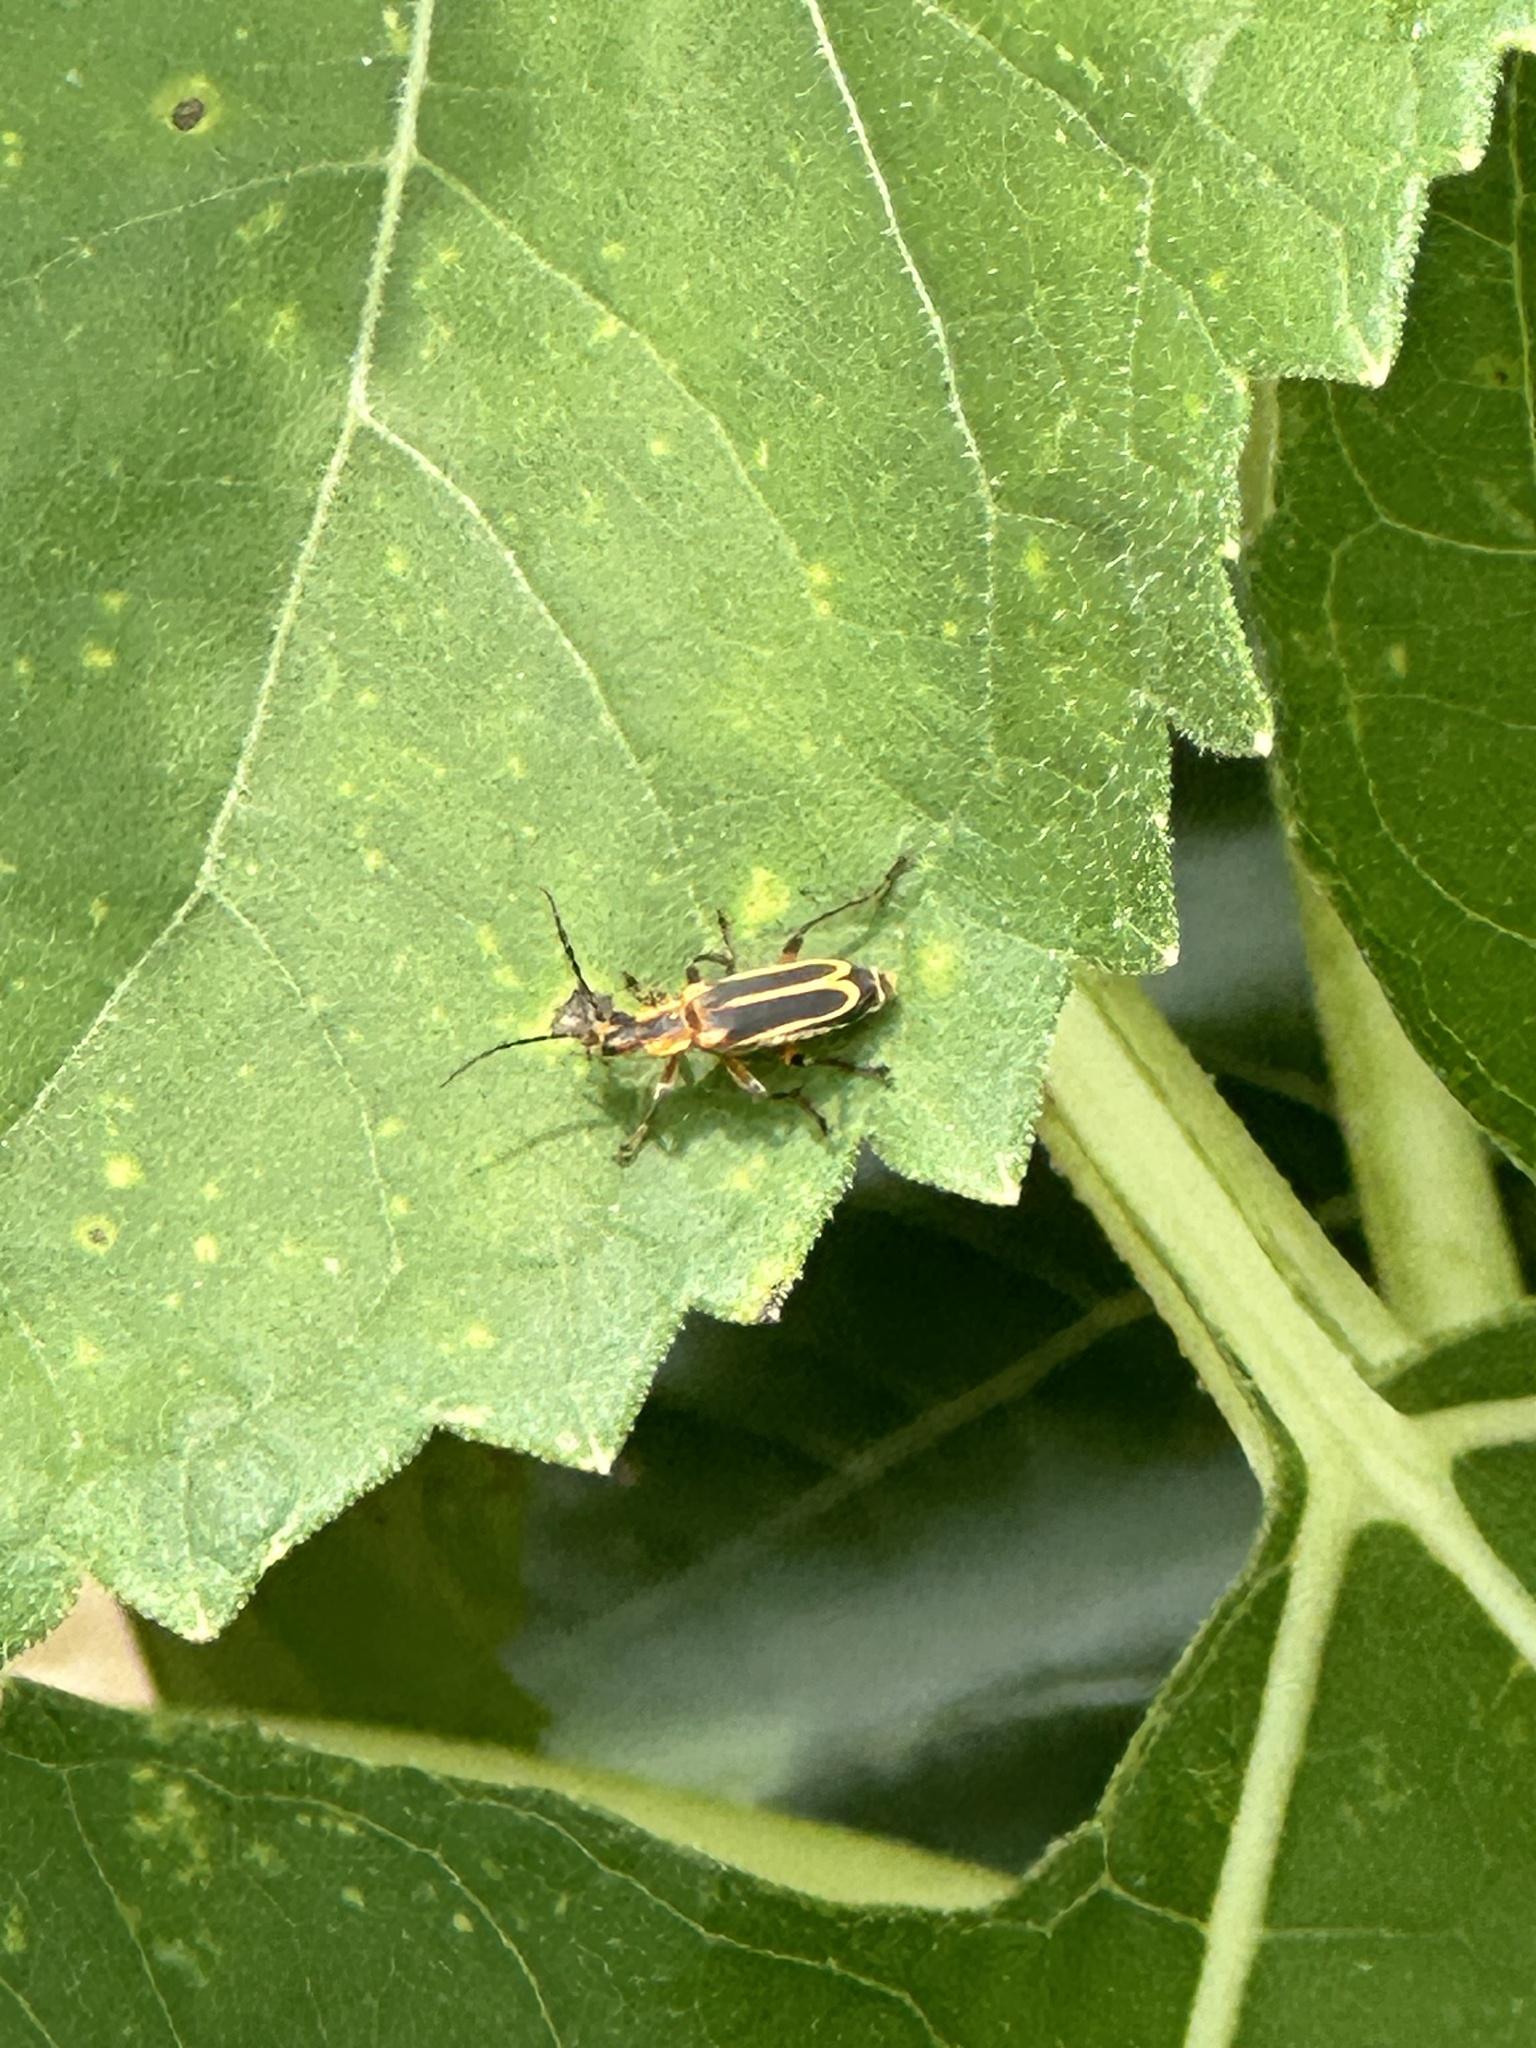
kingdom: Animalia
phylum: Arthropoda
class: Insecta
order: Coleoptera
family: Cantharidae
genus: Chauliognathus
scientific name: Chauliognathus marginatus
